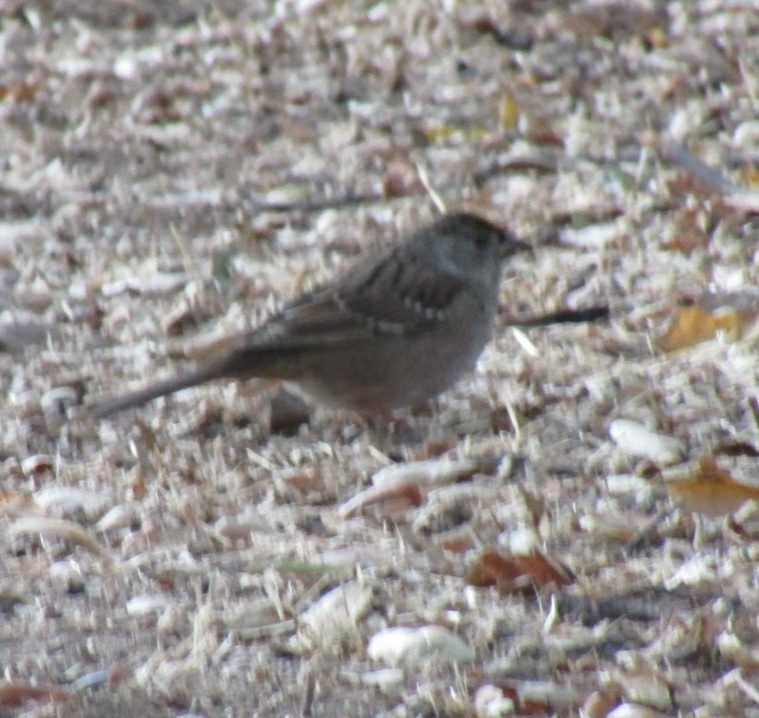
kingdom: Animalia
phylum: Chordata
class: Aves
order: Passeriformes
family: Passerellidae
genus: Zonotrichia
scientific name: Zonotrichia atricapilla
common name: Golden-crowned sparrow
